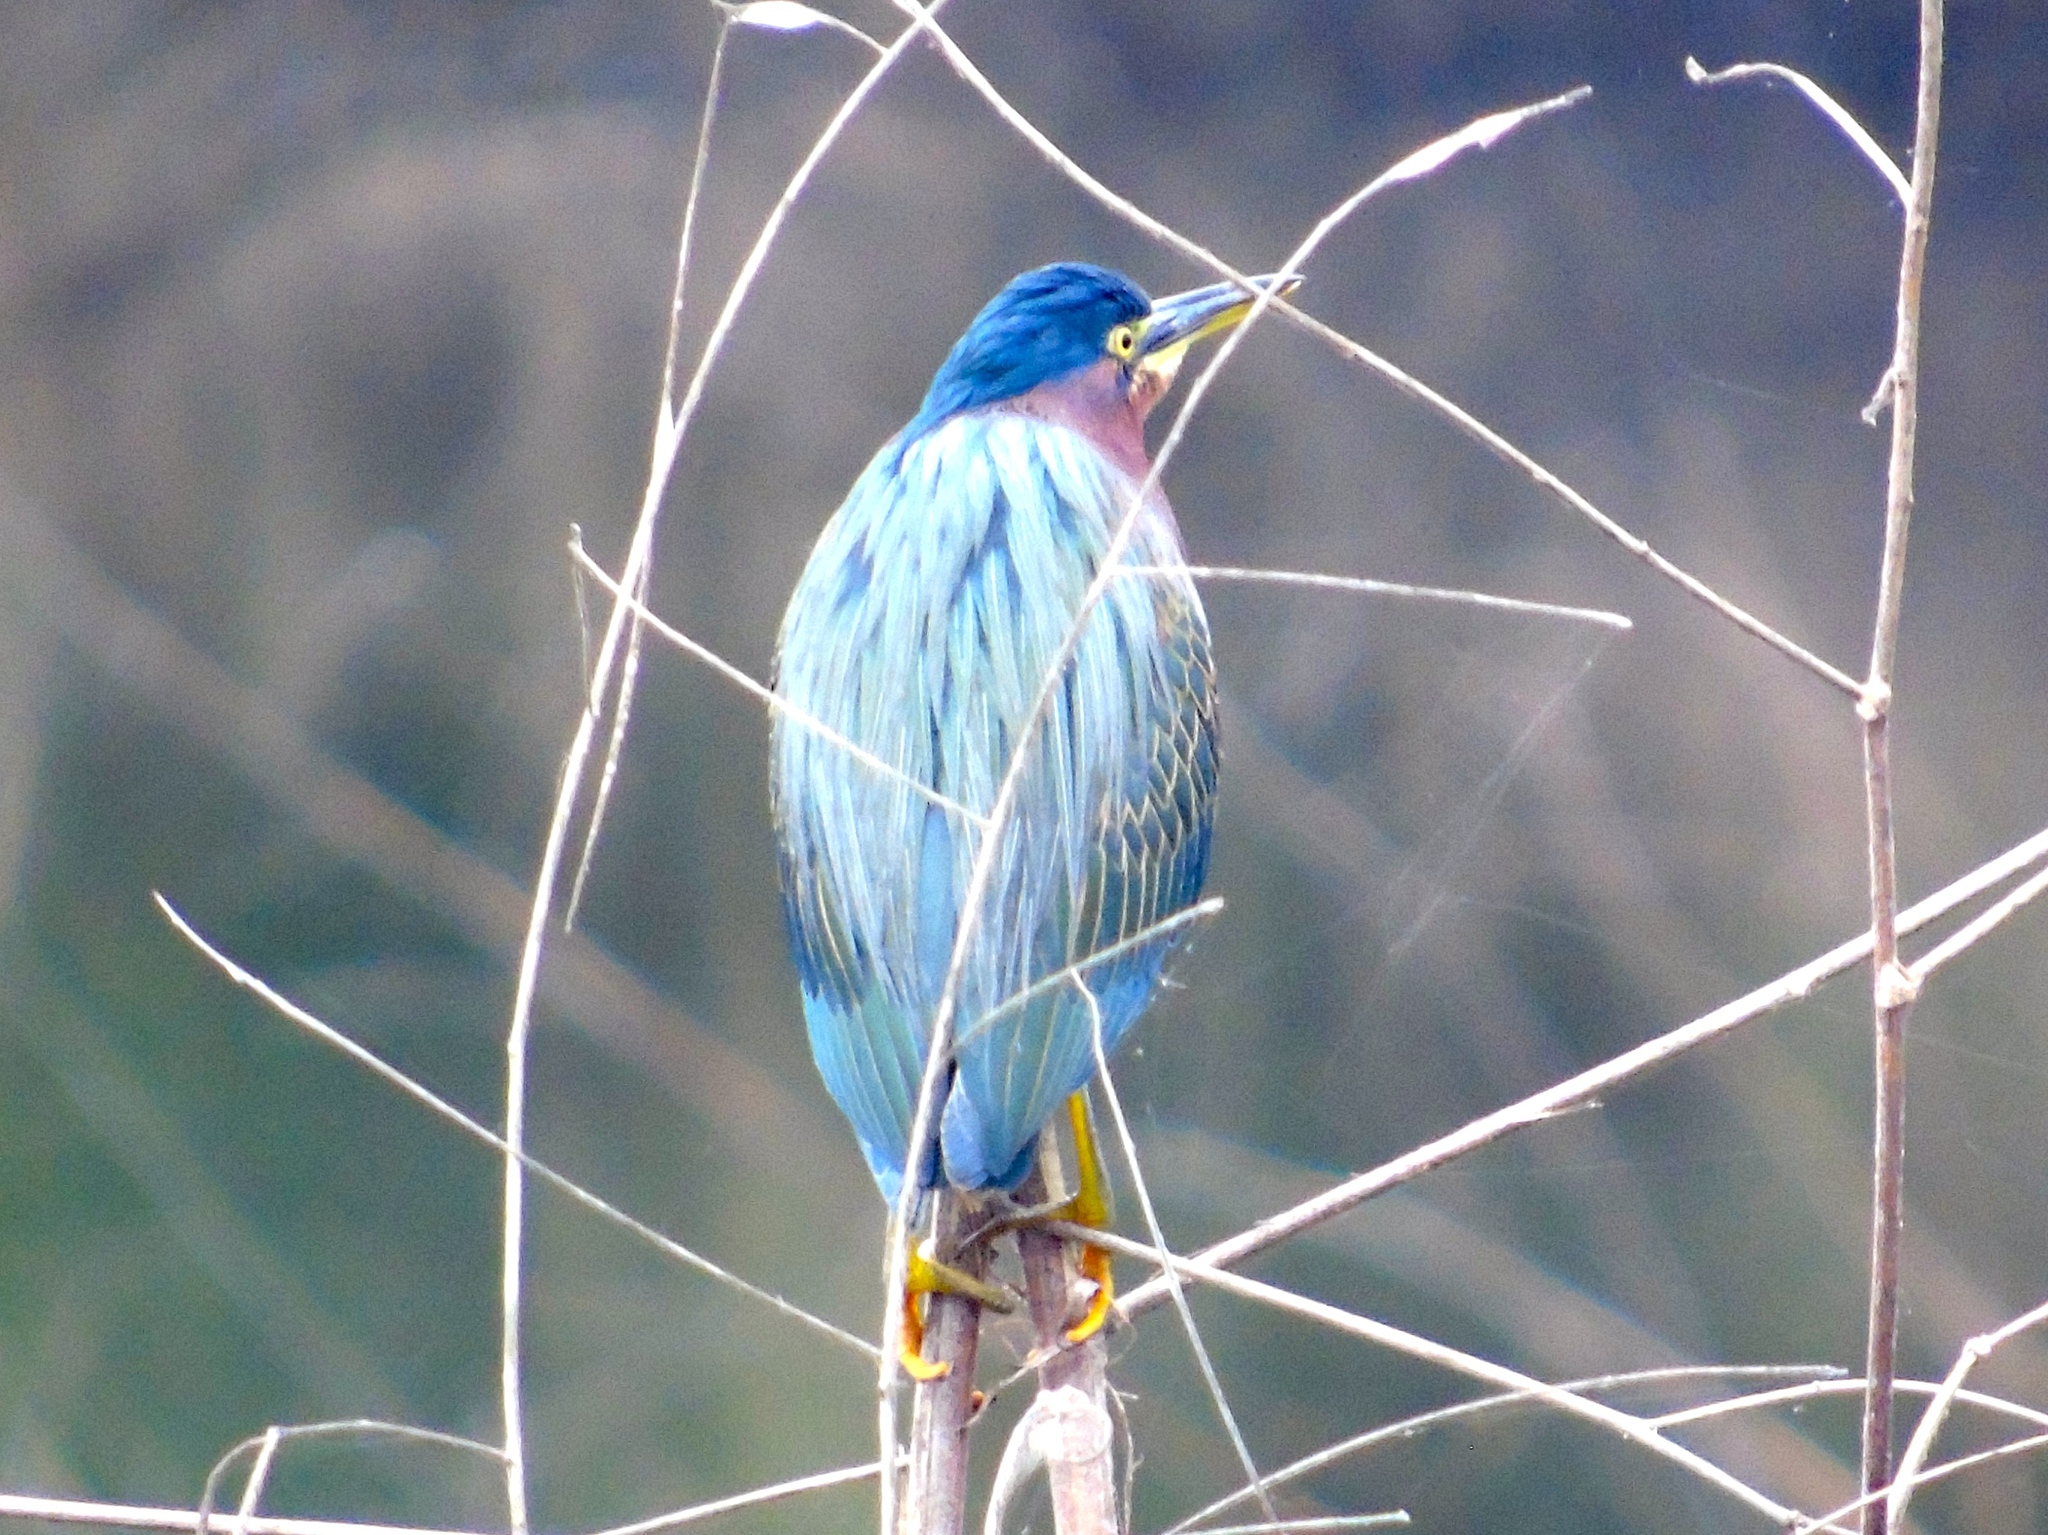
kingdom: Animalia
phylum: Chordata
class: Aves
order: Pelecaniformes
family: Ardeidae
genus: Butorides
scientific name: Butorides virescens
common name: Green heron
